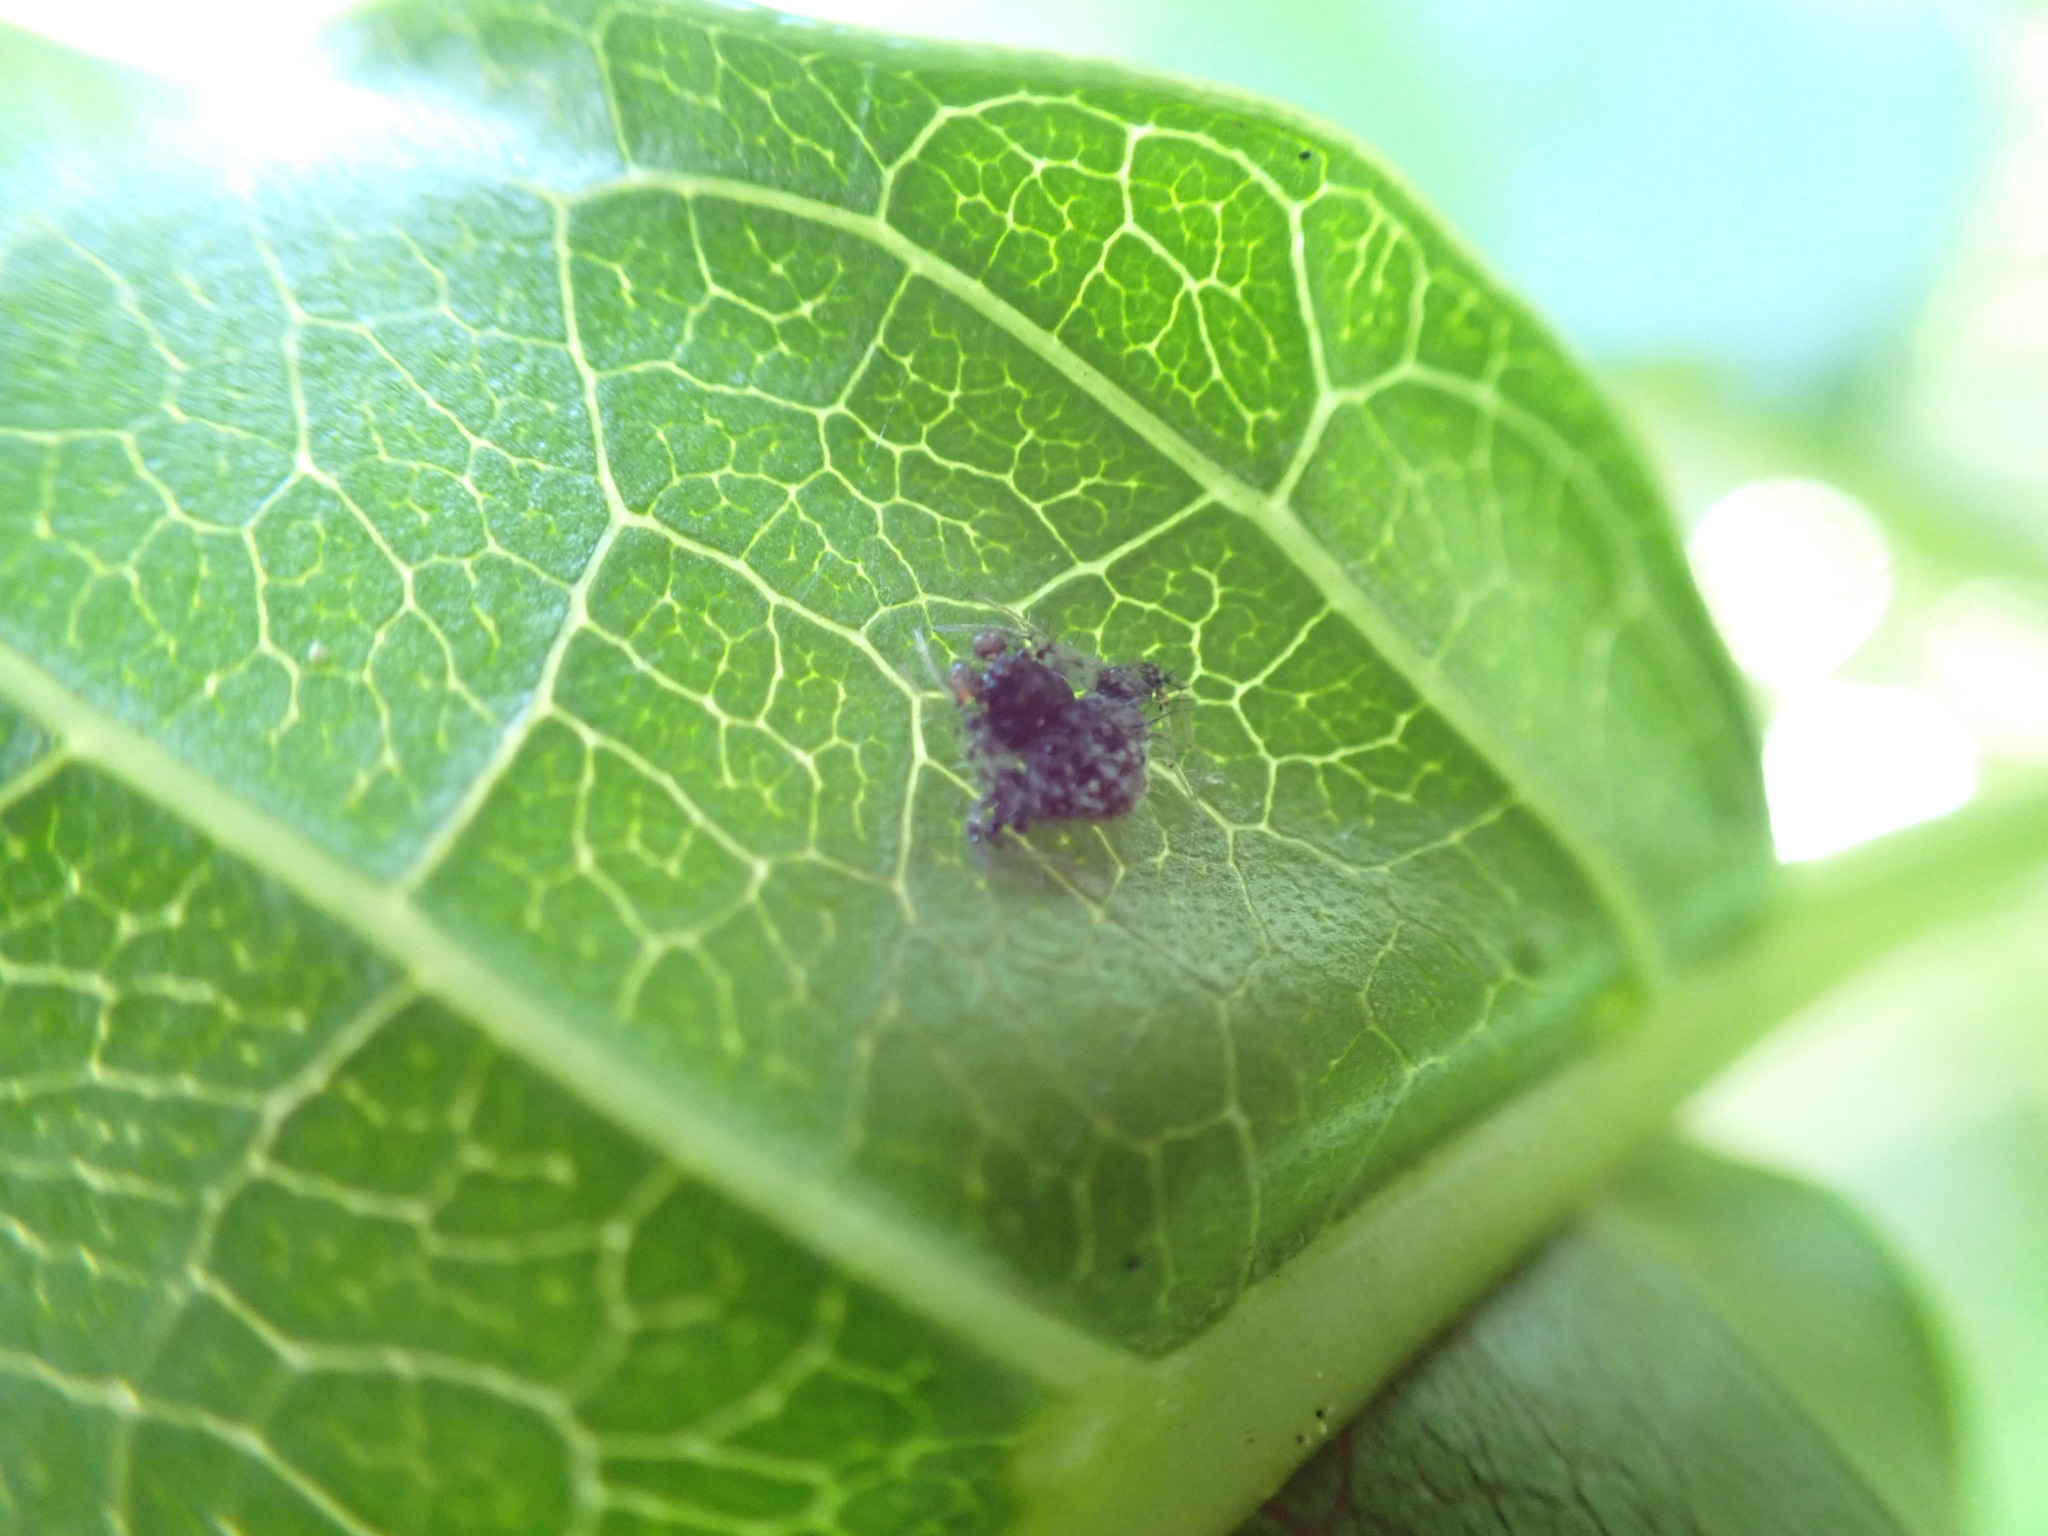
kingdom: Animalia
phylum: Arthropoda
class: Arachnida
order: Araneae
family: Araneidae
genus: Poecilopachys
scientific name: Poecilopachys australasia
